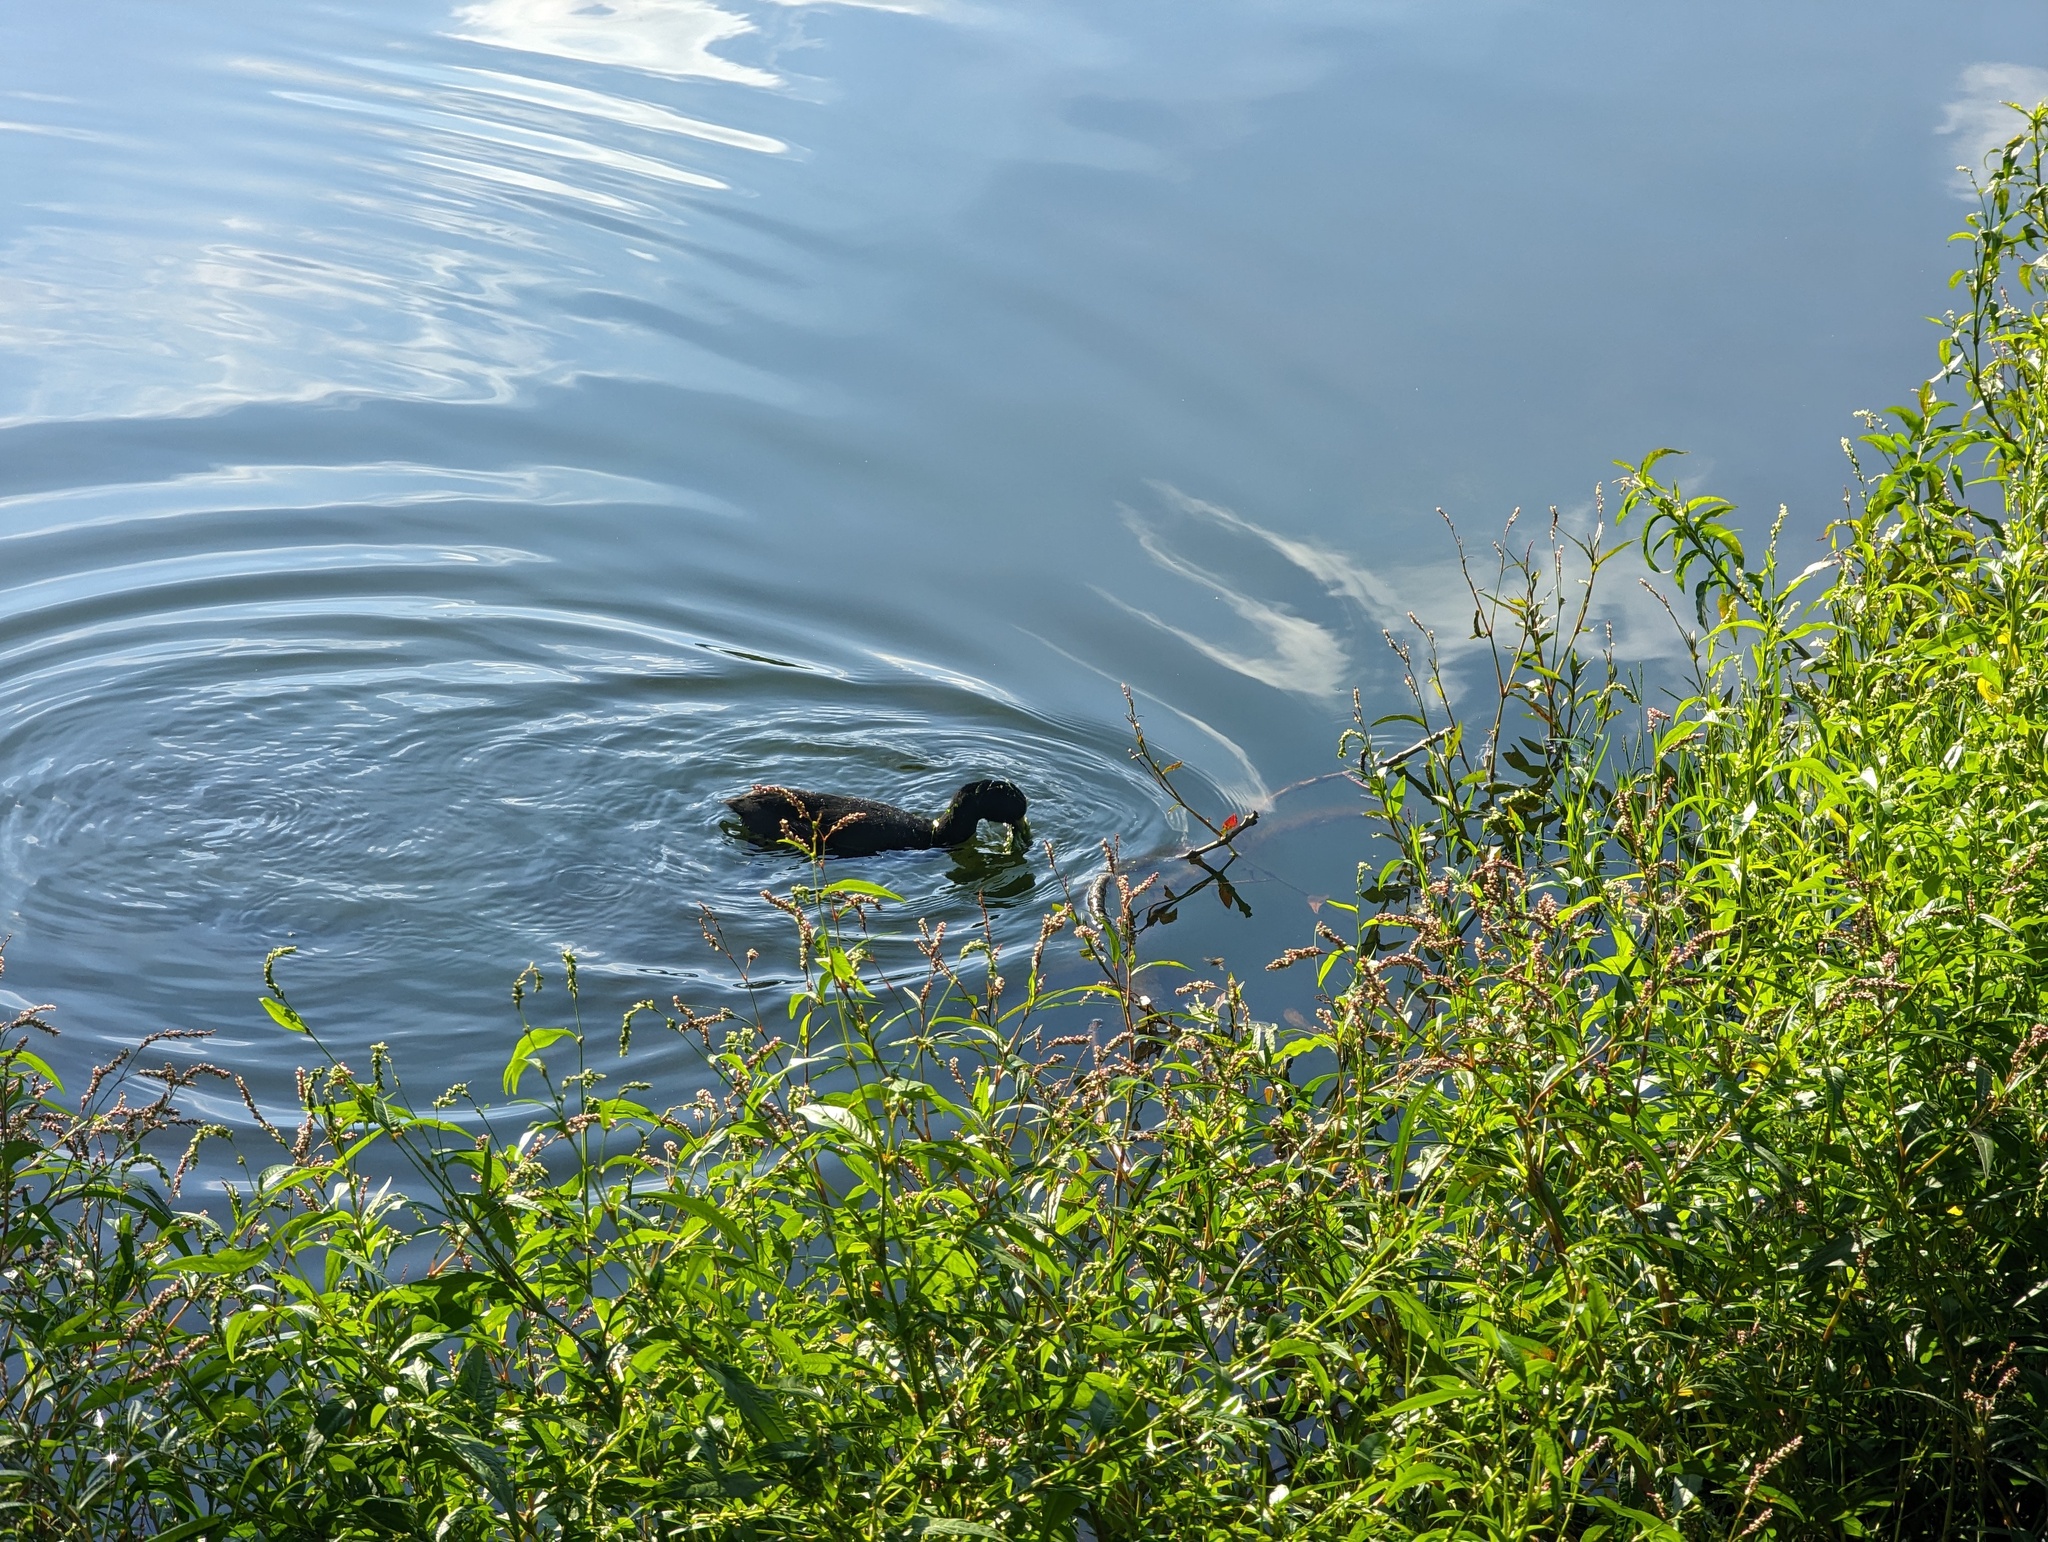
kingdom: Animalia
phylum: Chordata
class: Aves
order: Gruiformes
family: Rallidae
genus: Fulica
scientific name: Fulica atra
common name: Eurasian coot
